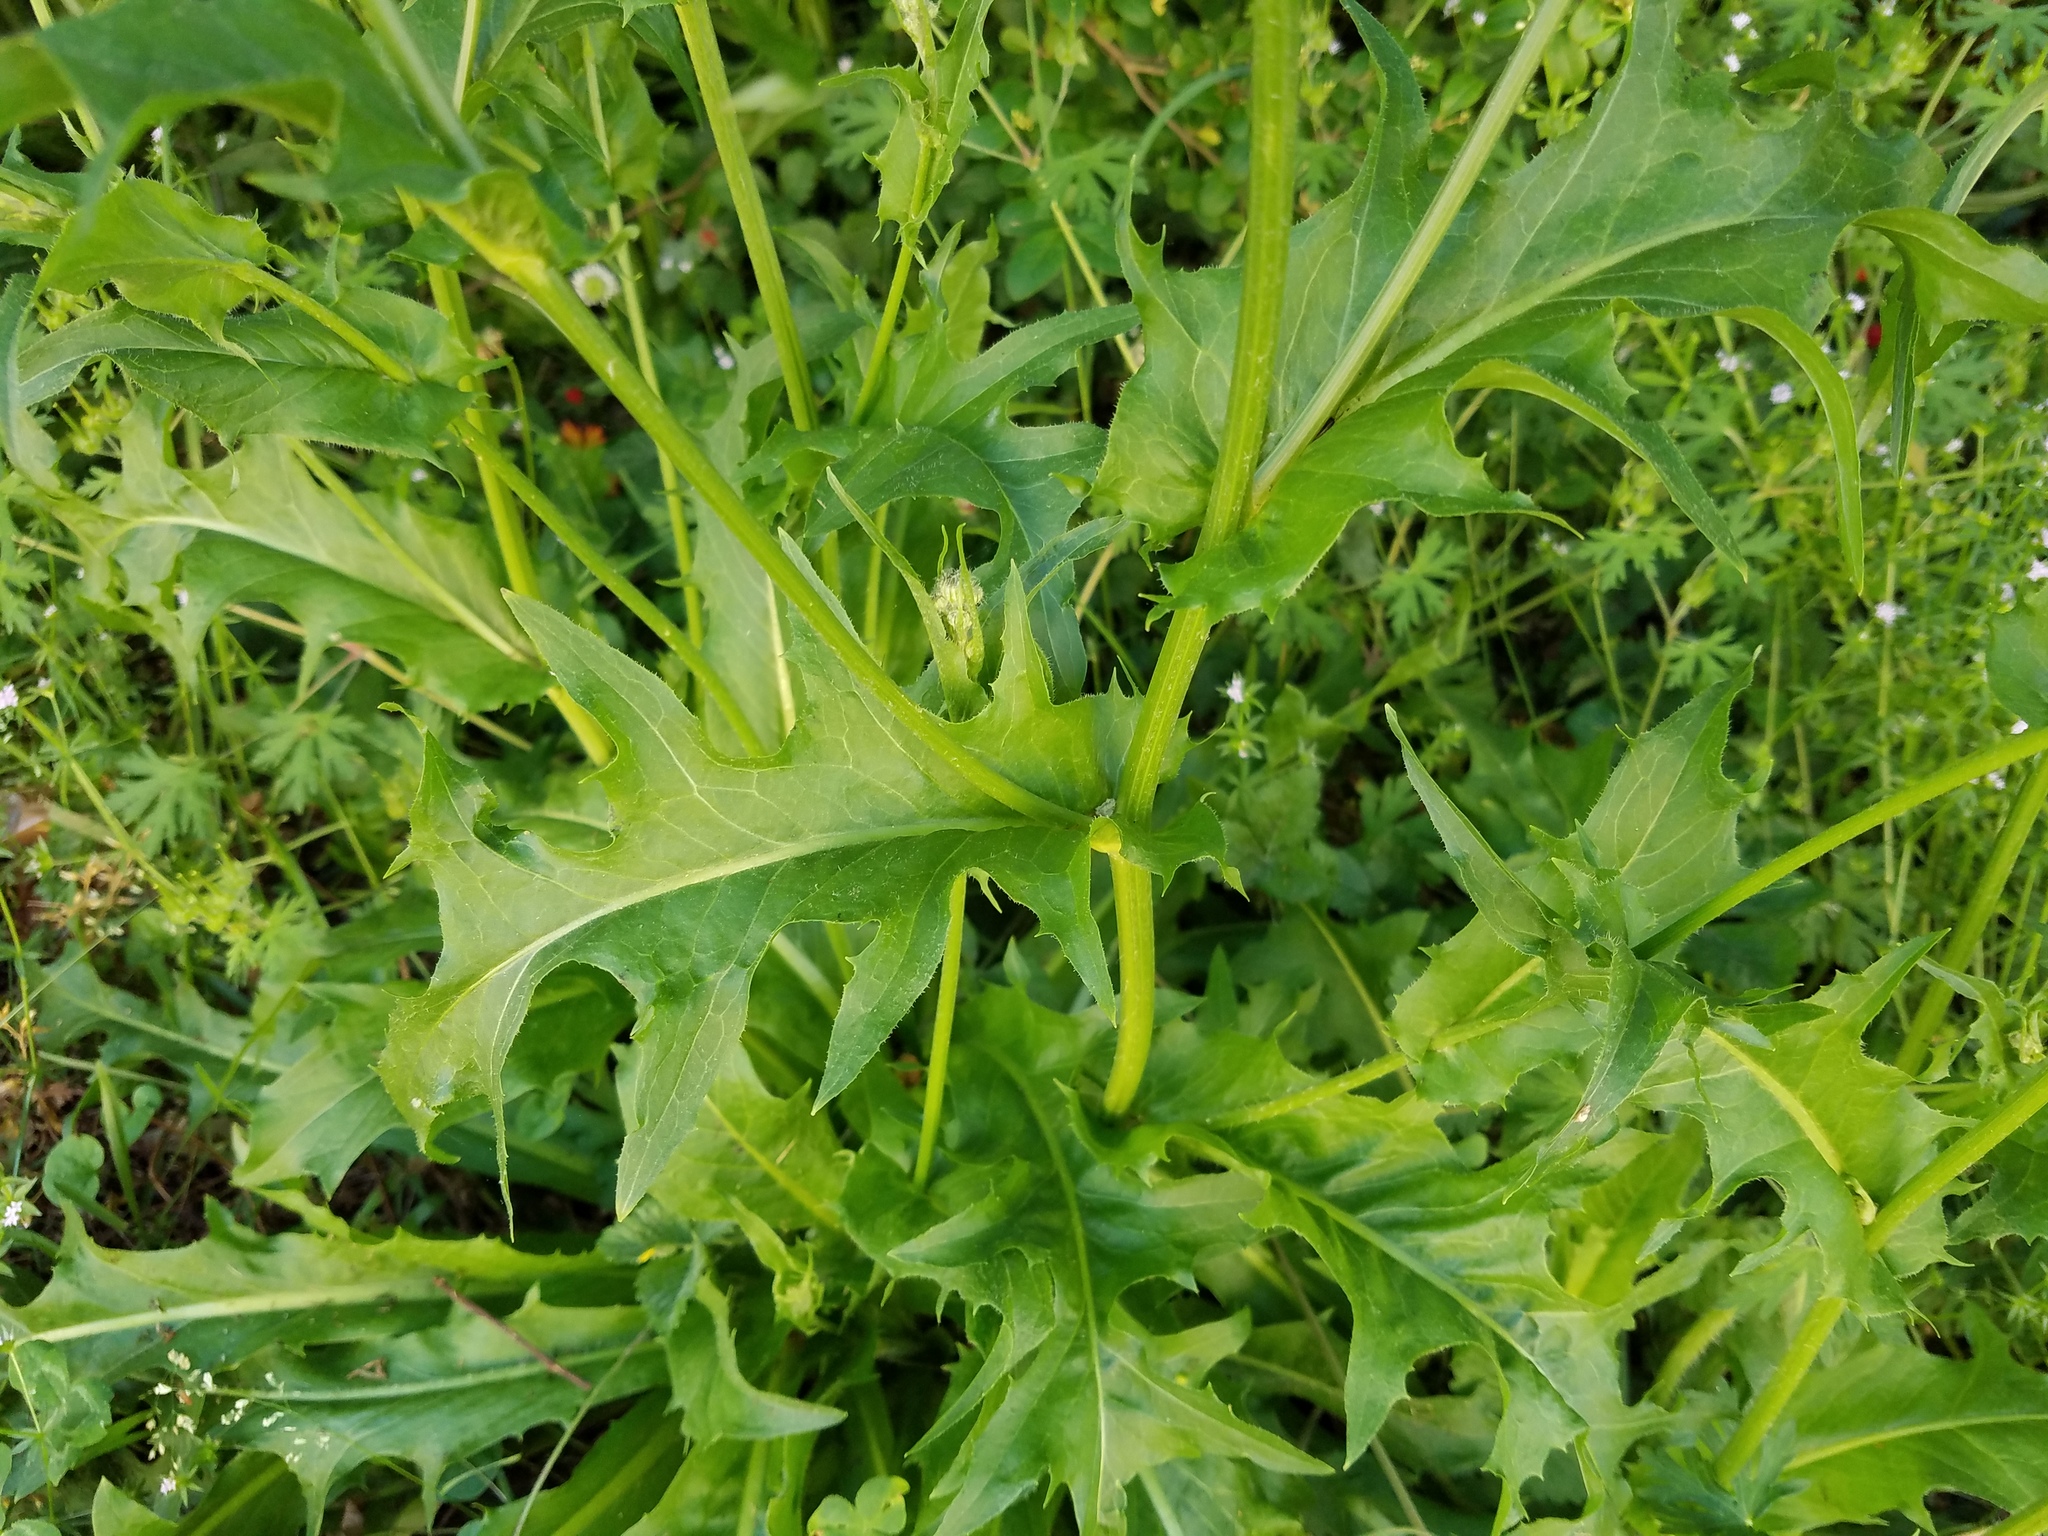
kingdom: Plantae
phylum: Tracheophyta
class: Magnoliopsida
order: Asterales
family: Asteraceae
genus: Hypochaeris
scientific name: Hypochaeris chillensis
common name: Brazilian cat's ear
